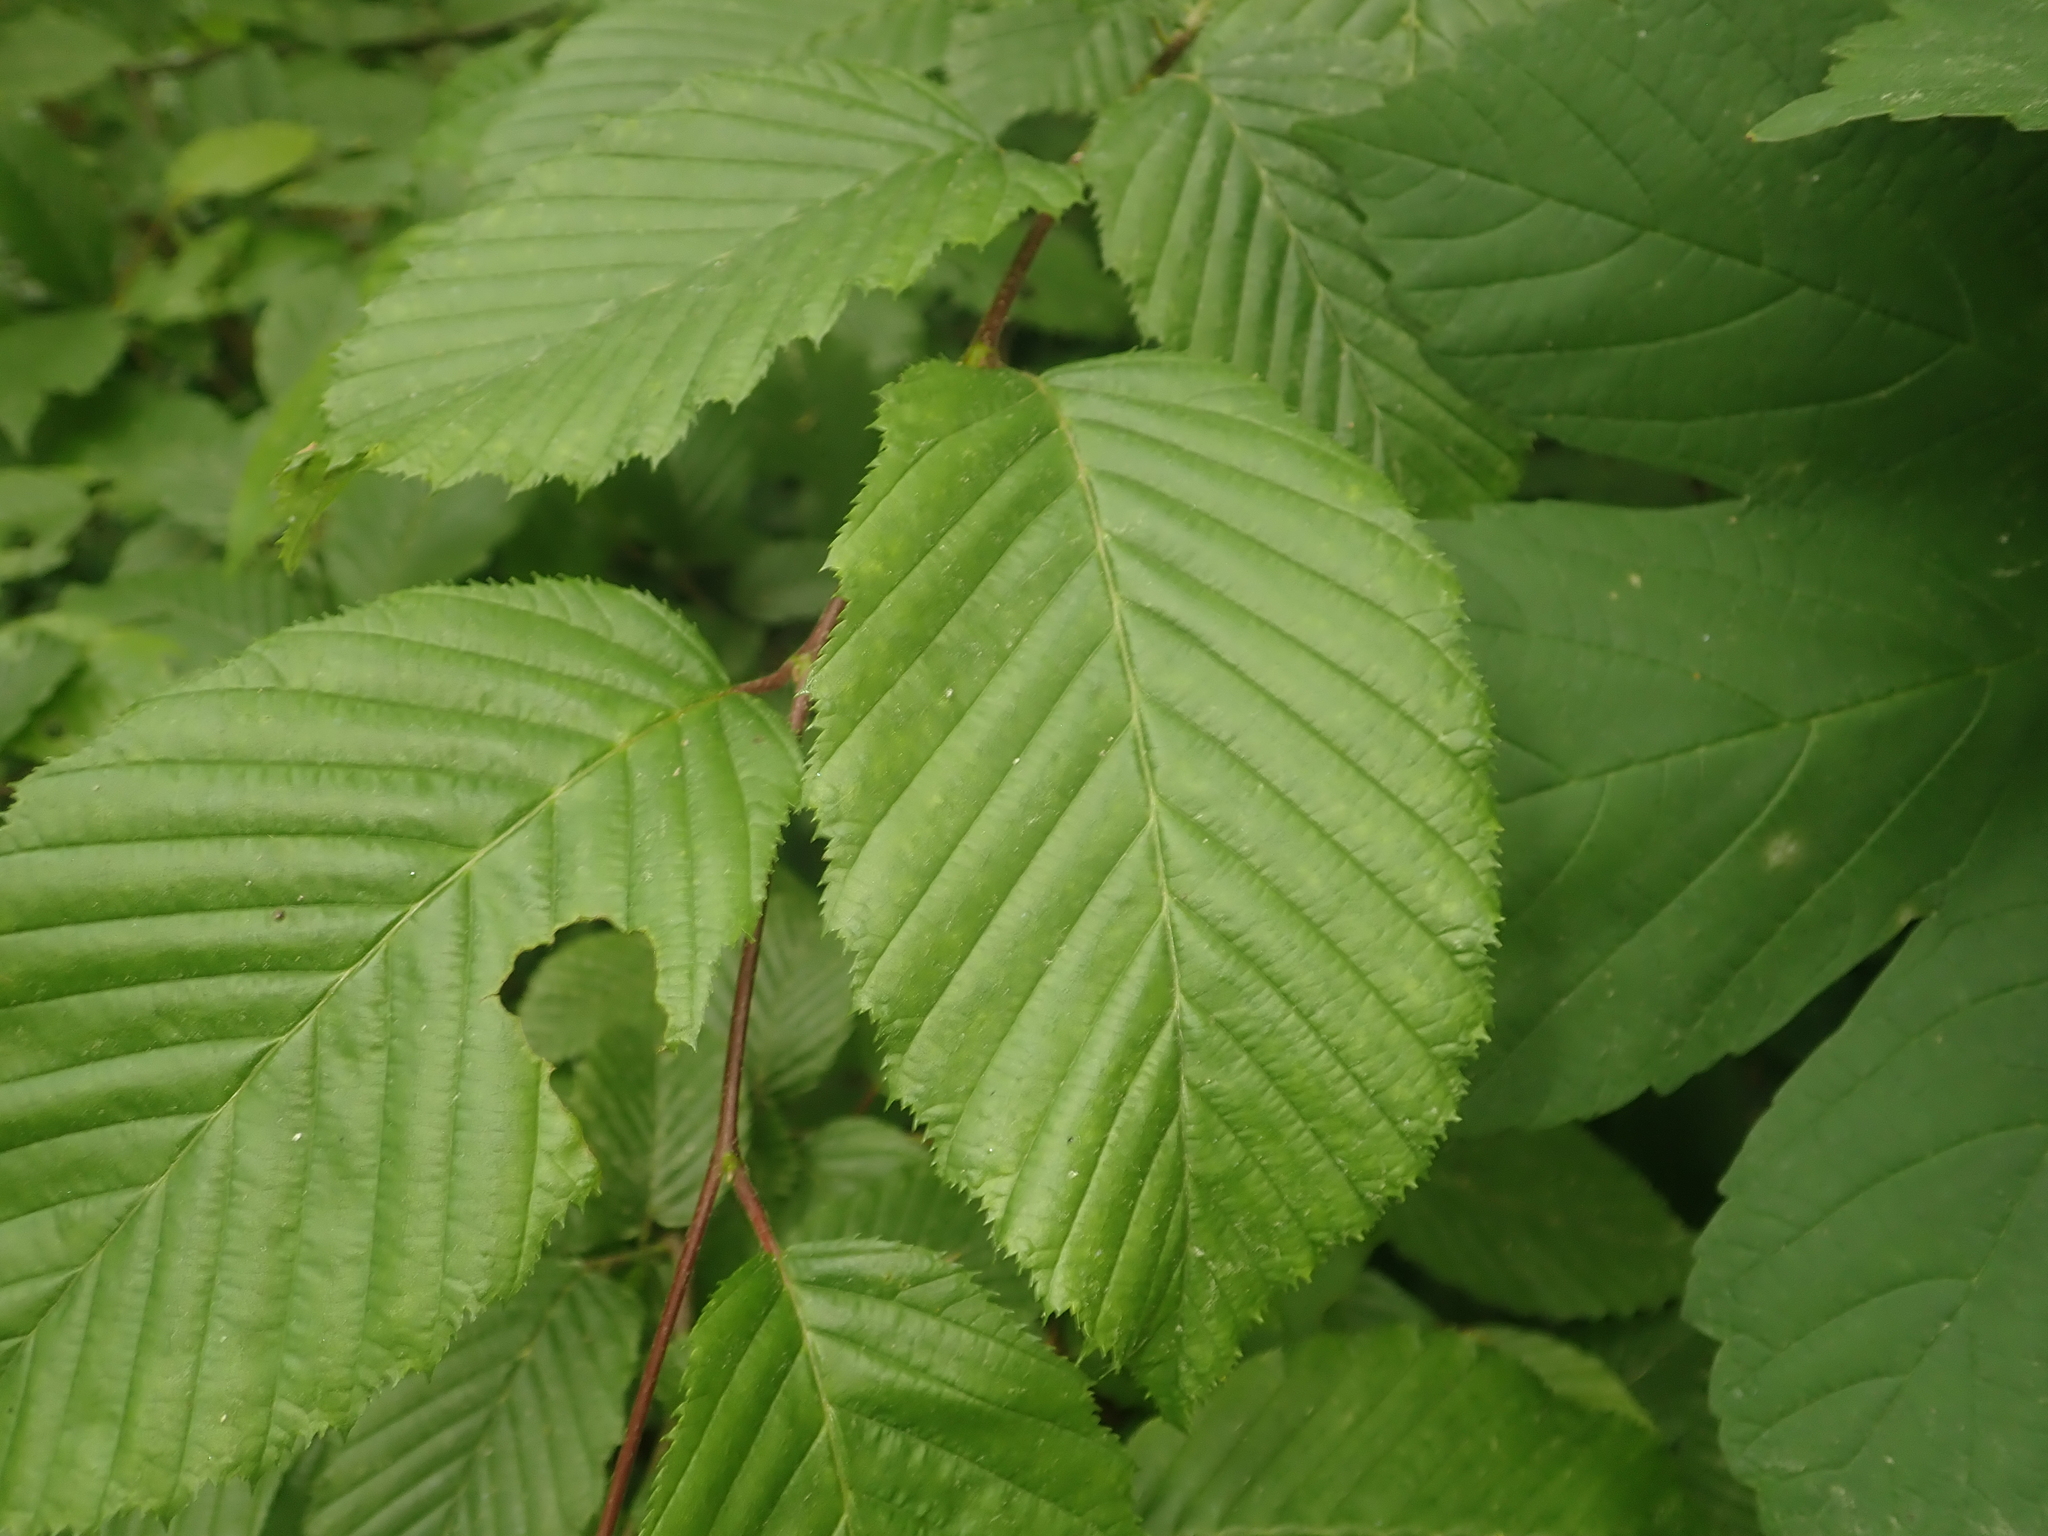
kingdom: Plantae
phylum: Tracheophyta
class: Magnoliopsida
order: Fagales
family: Betulaceae
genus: Carpinus
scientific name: Carpinus betulus
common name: Hornbeam
